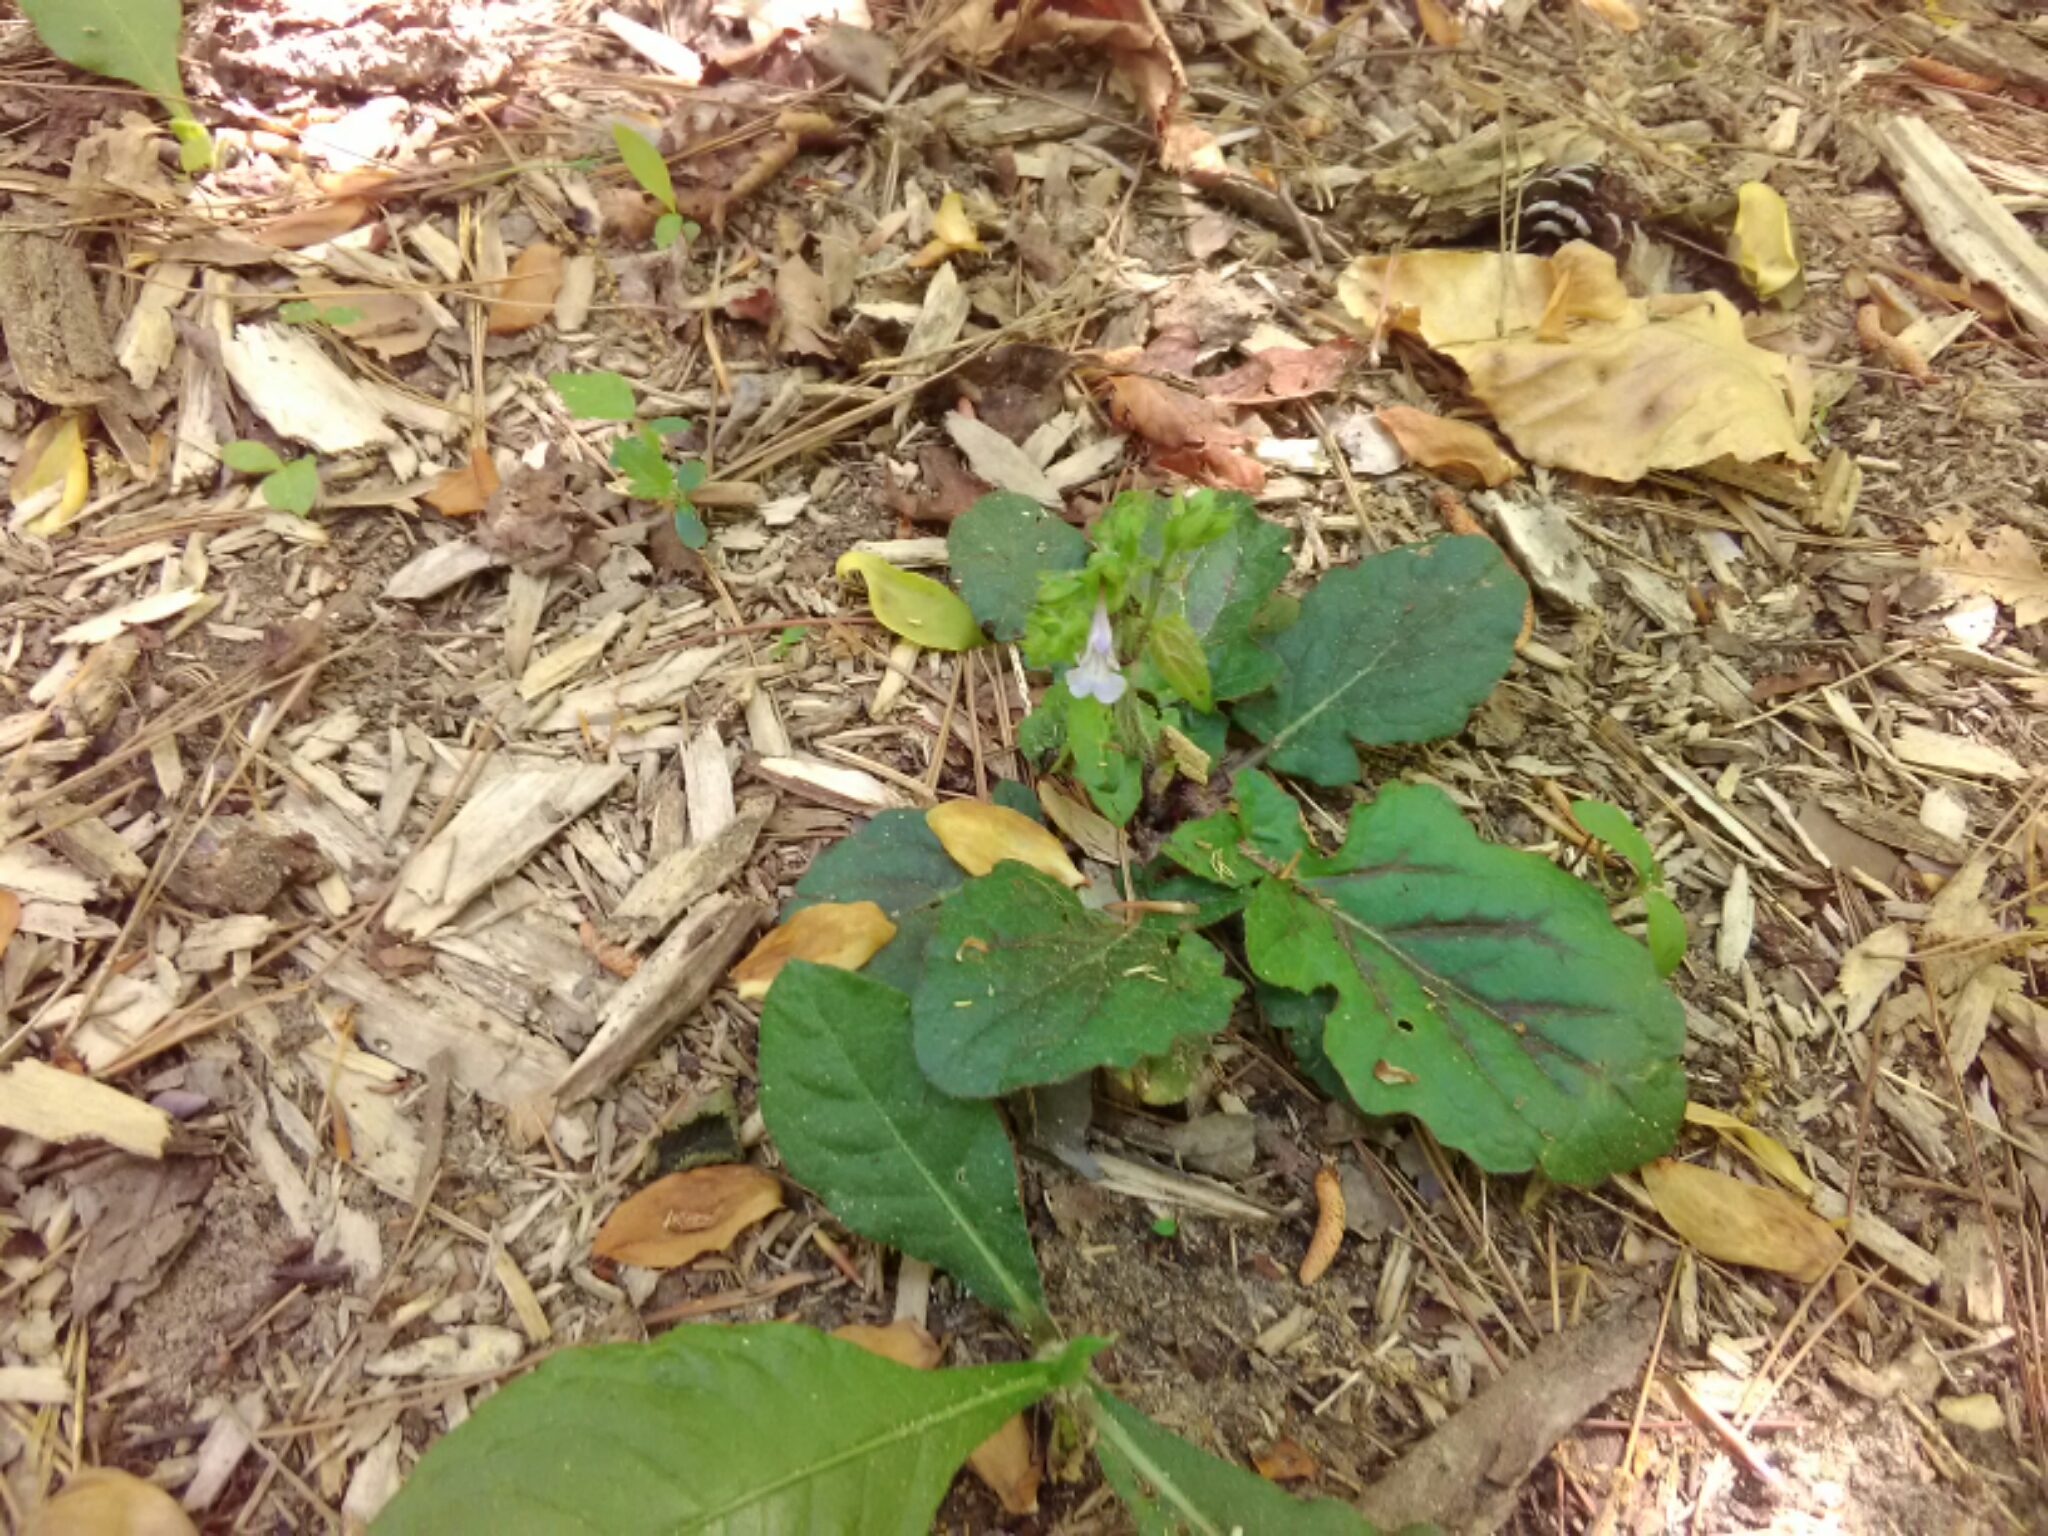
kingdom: Plantae
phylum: Tracheophyta
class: Magnoliopsida
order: Lamiales
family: Lamiaceae
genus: Salvia
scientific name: Salvia lyrata
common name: Cancerweed
